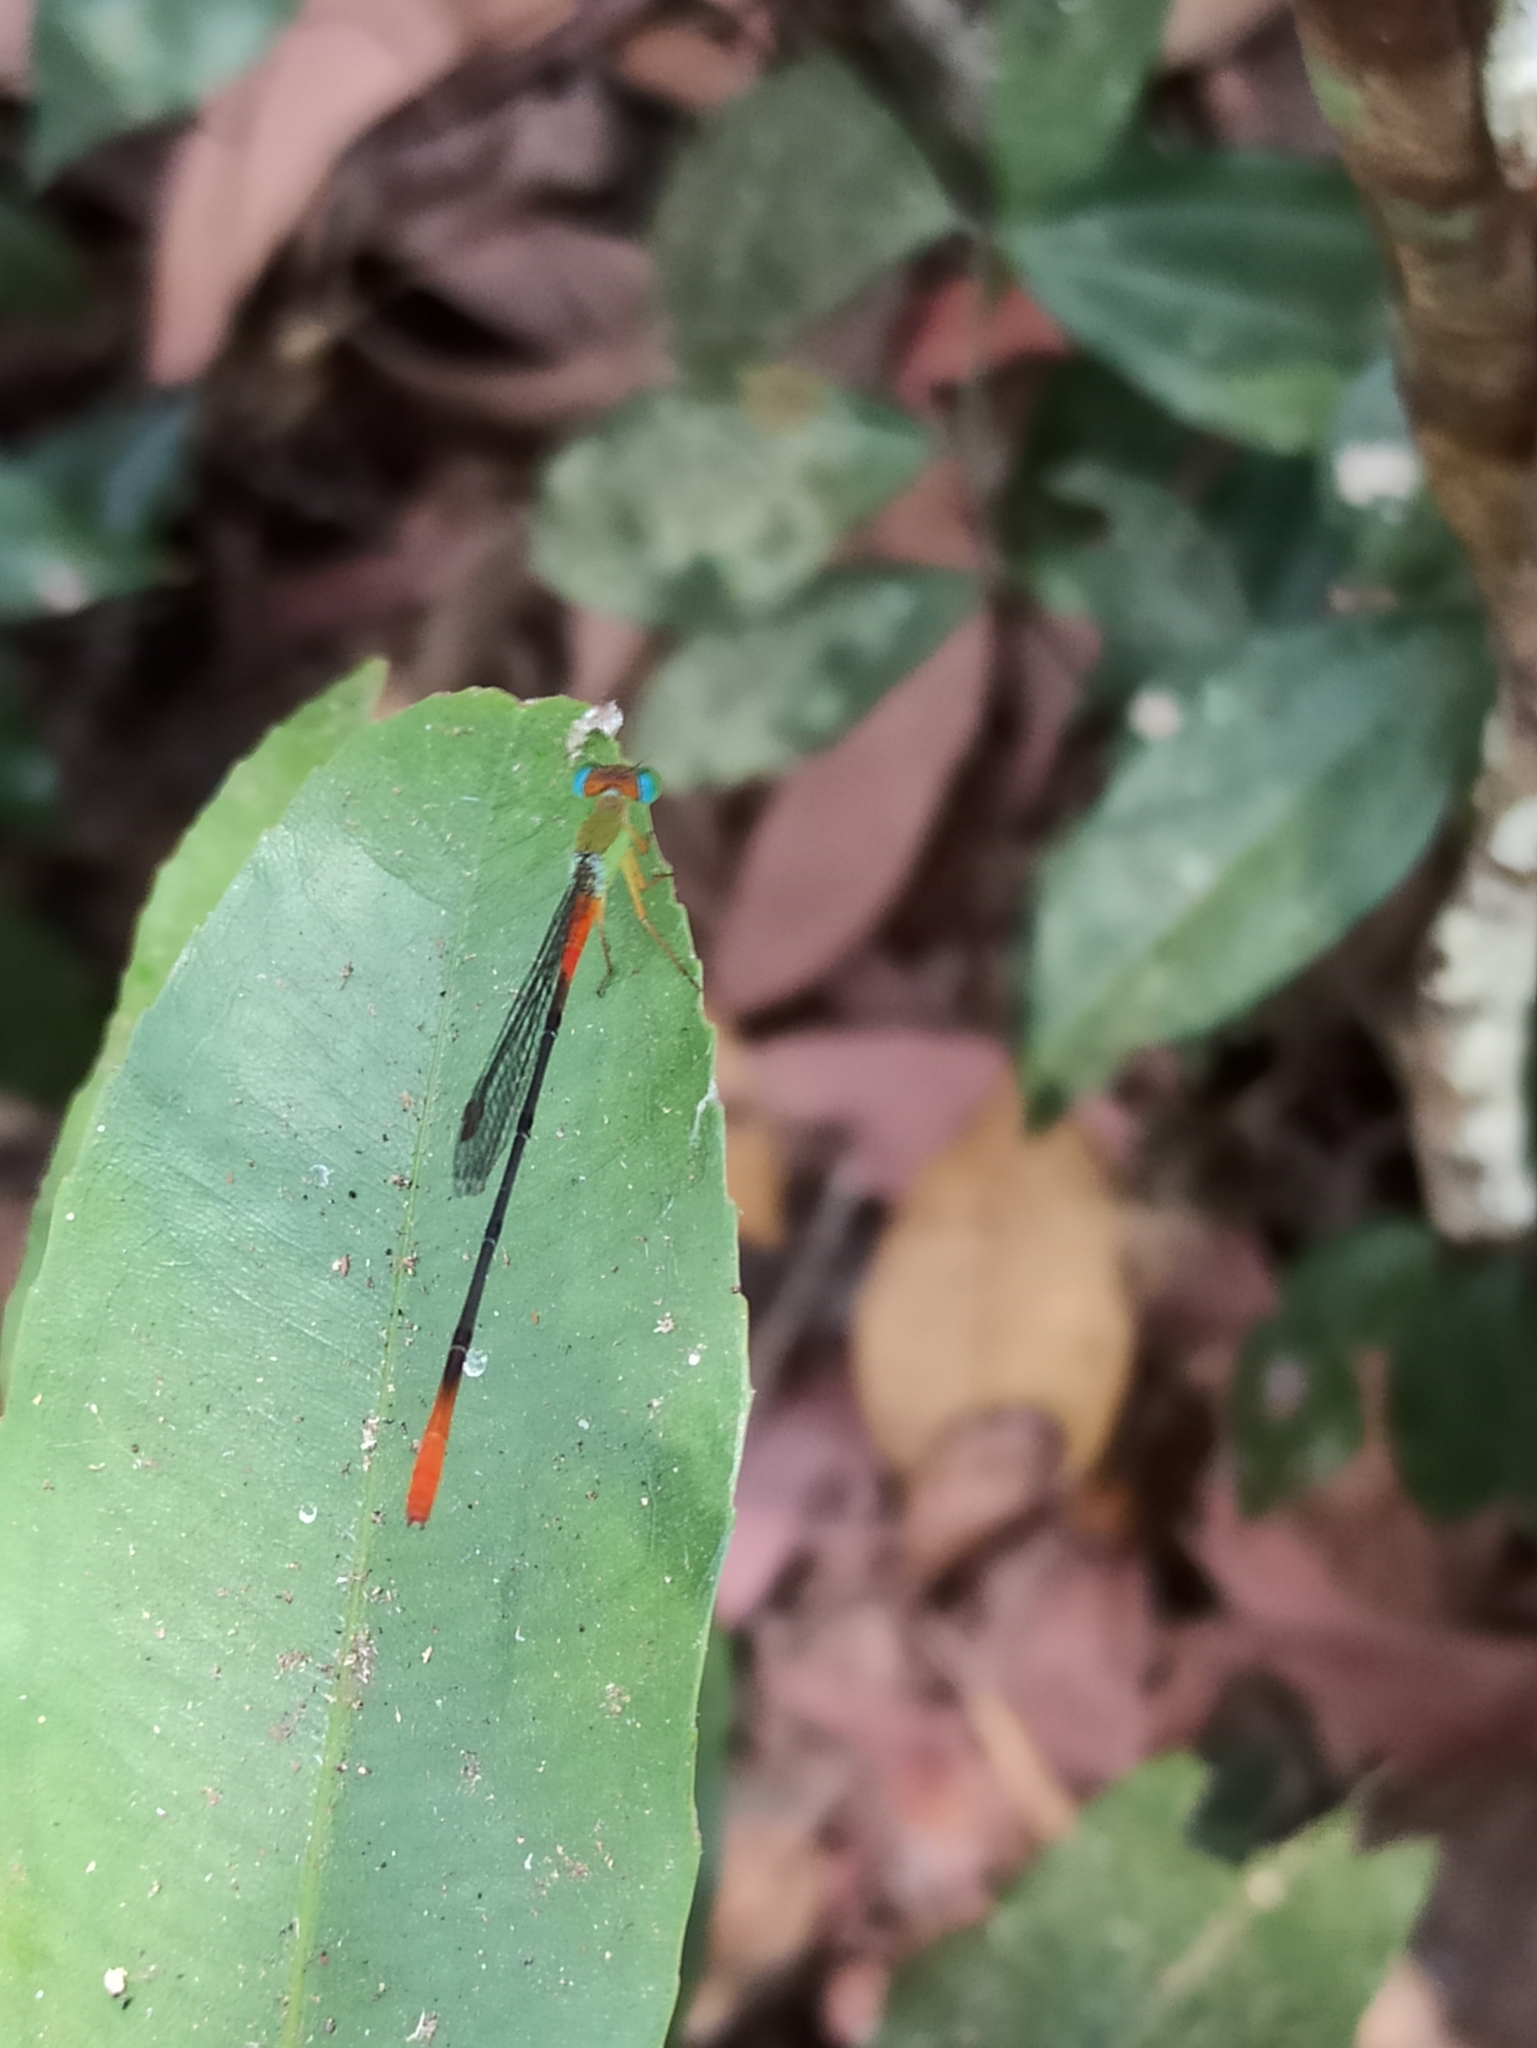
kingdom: Animalia
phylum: Arthropoda
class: Insecta
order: Odonata
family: Coenagrionidae
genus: Ceriagrion
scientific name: Ceriagrion cerinorubellum
